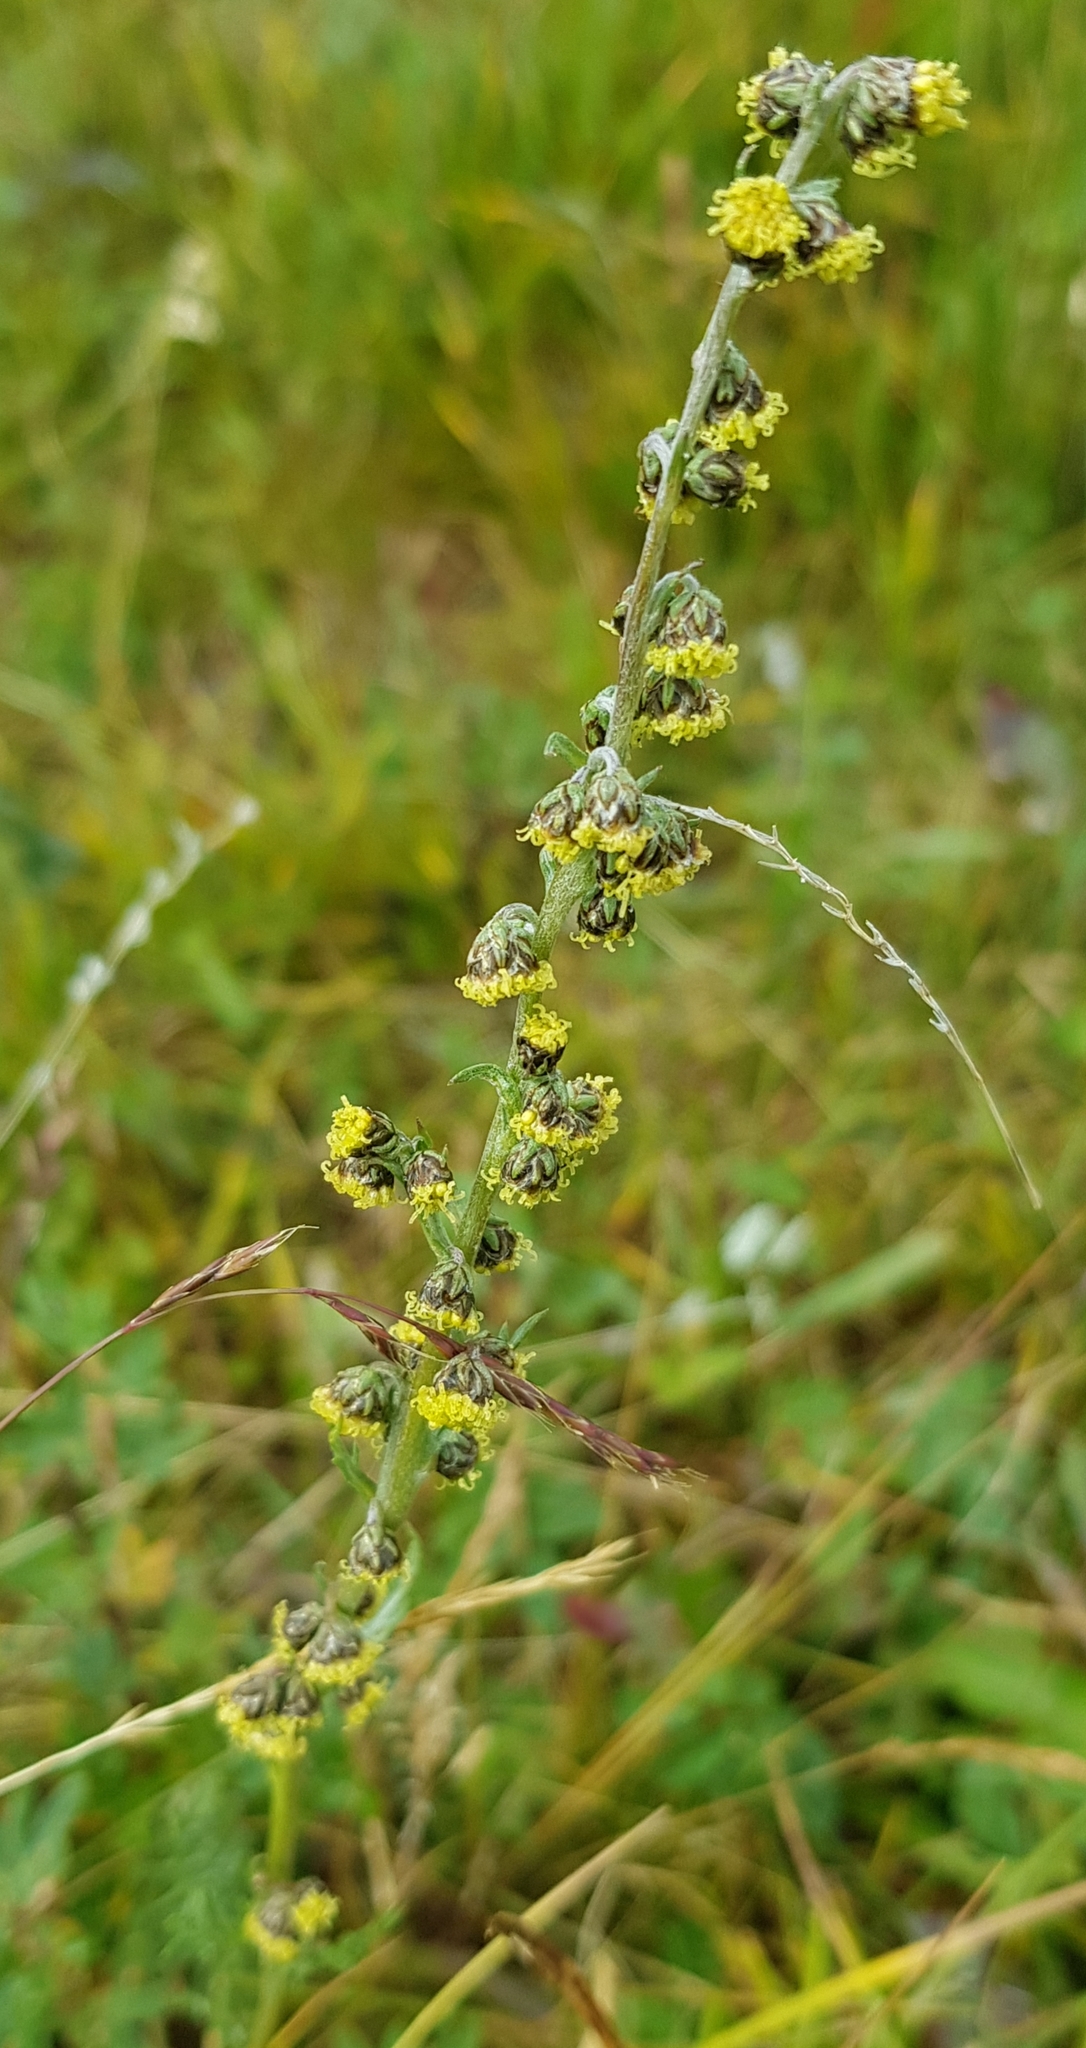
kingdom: Plantae
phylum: Tracheophyta
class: Magnoliopsida
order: Asterales
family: Asteraceae
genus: Artemisia
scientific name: Artemisia tanacetifolia
